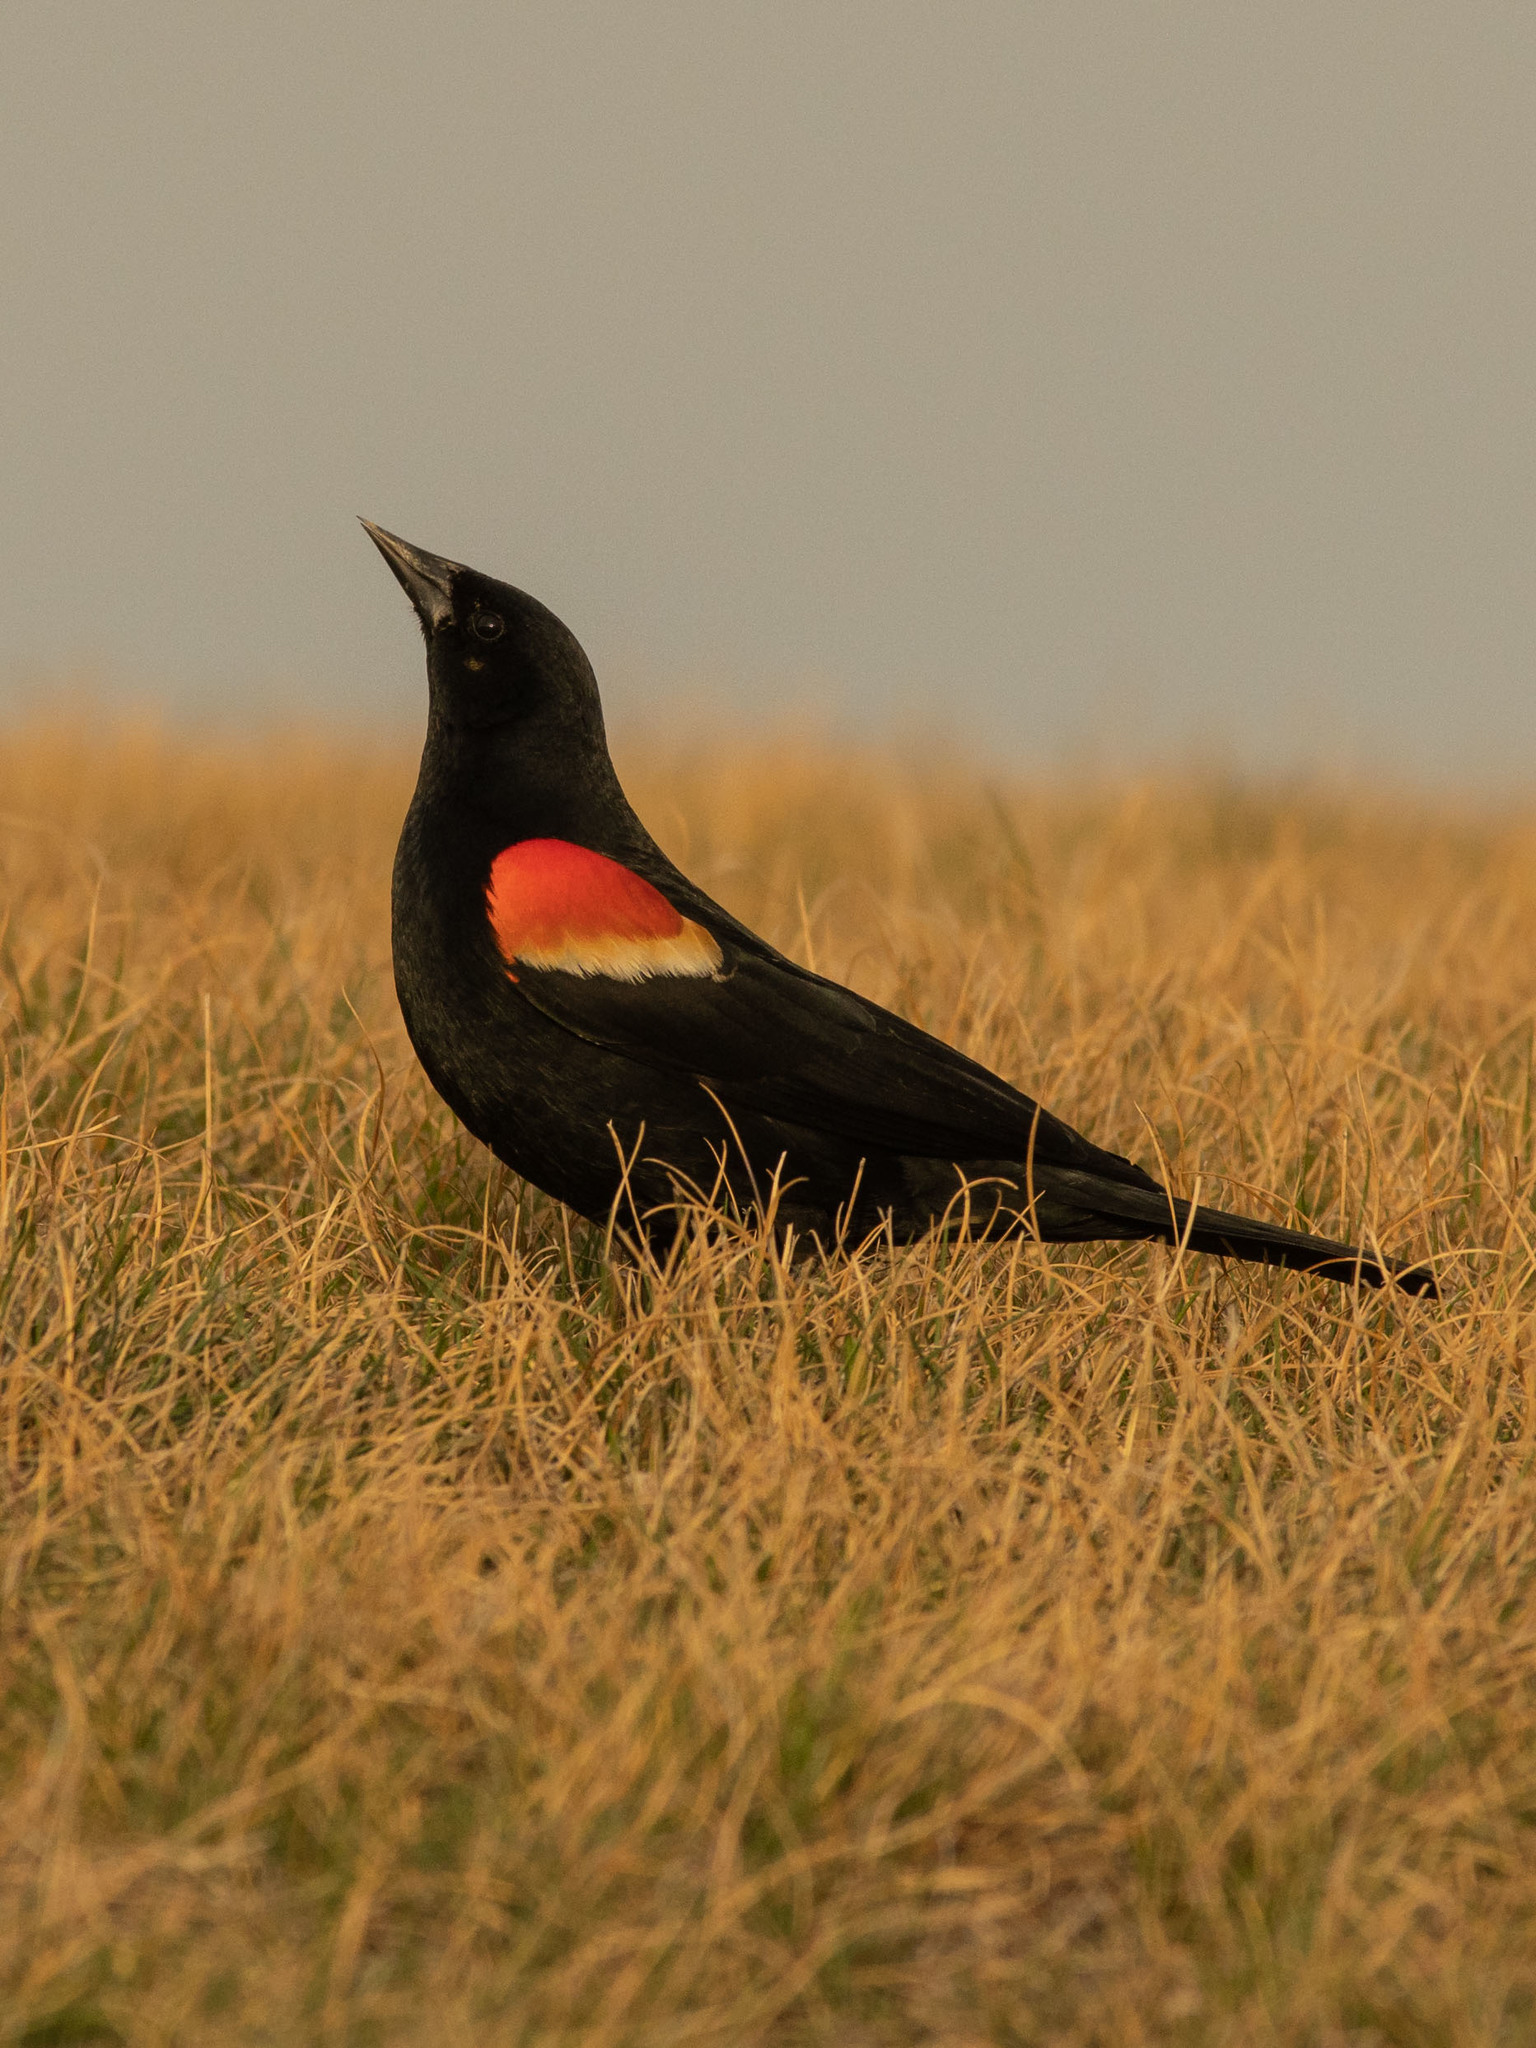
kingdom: Animalia
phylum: Chordata
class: Aves
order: Passeriformes
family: Icteridae
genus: Agelaius
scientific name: Agelaius phoeniceus
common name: Red-winged blackbird
